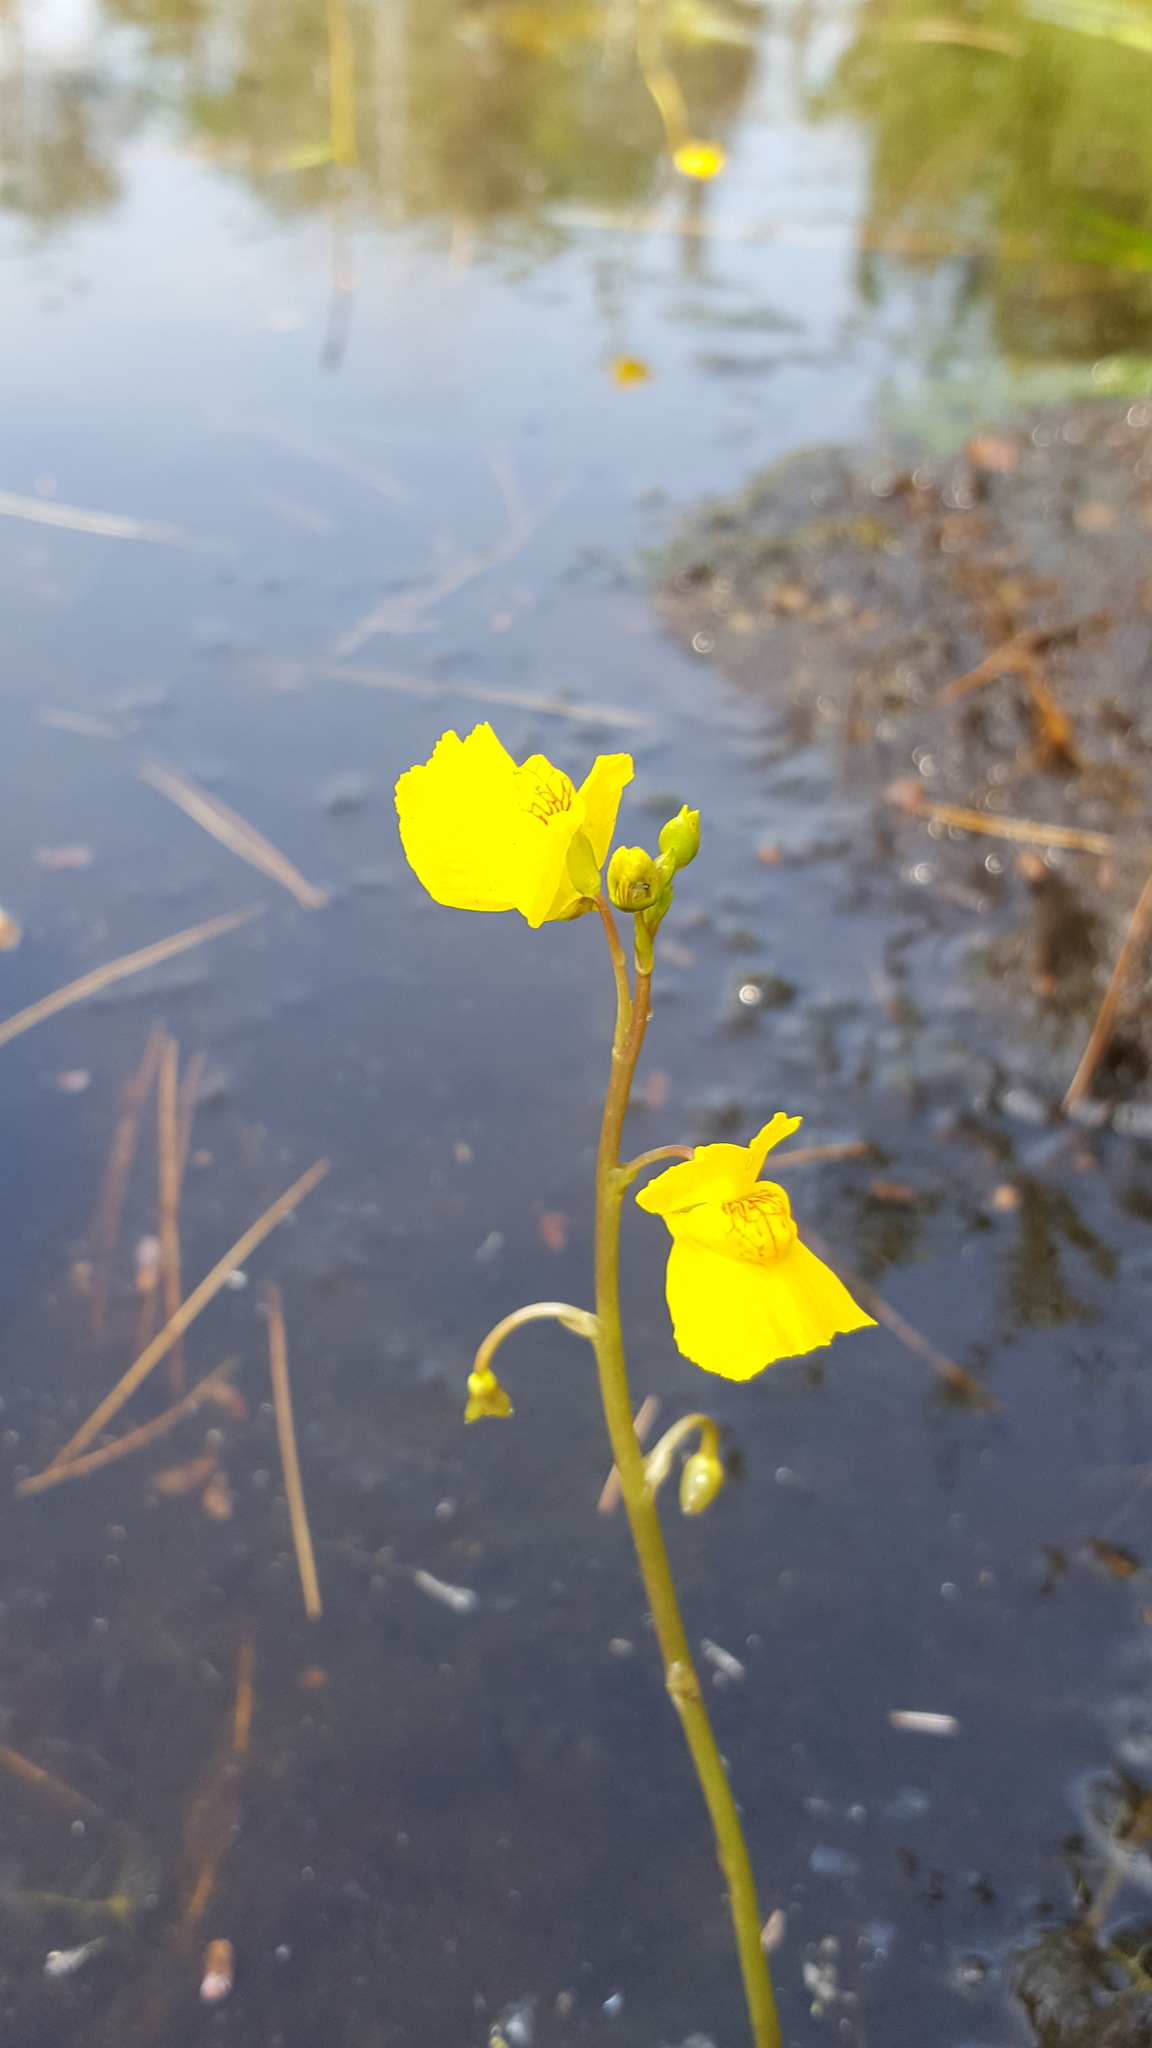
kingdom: Plantae
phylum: Tracheophyta
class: Magnoliopsida
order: Lamiales
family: Lentibulariaceae
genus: Utricularia
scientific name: Utricularia macrorhiza
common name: Common bladderwort
